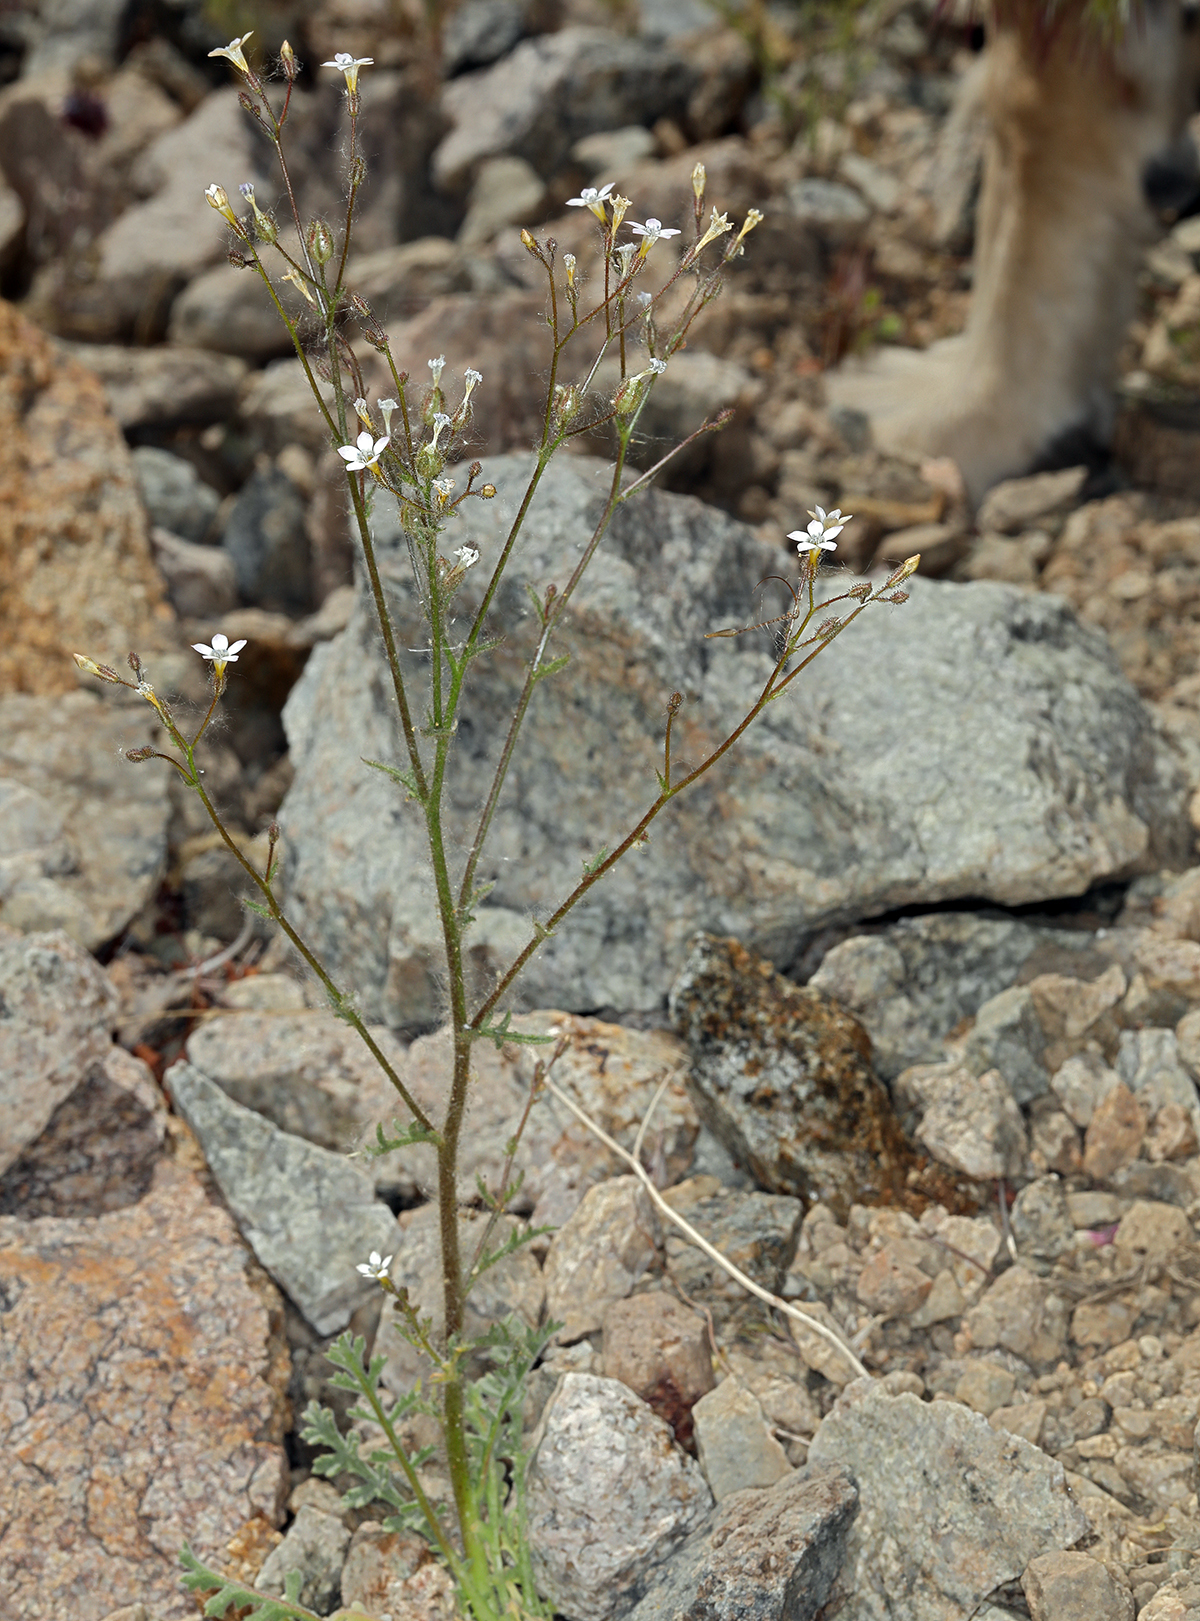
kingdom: Plantae
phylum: Tracheophyta
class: Magnoliopsida
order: Ericales
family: Polemoniaceae
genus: Gilia
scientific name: Gilia stellata
